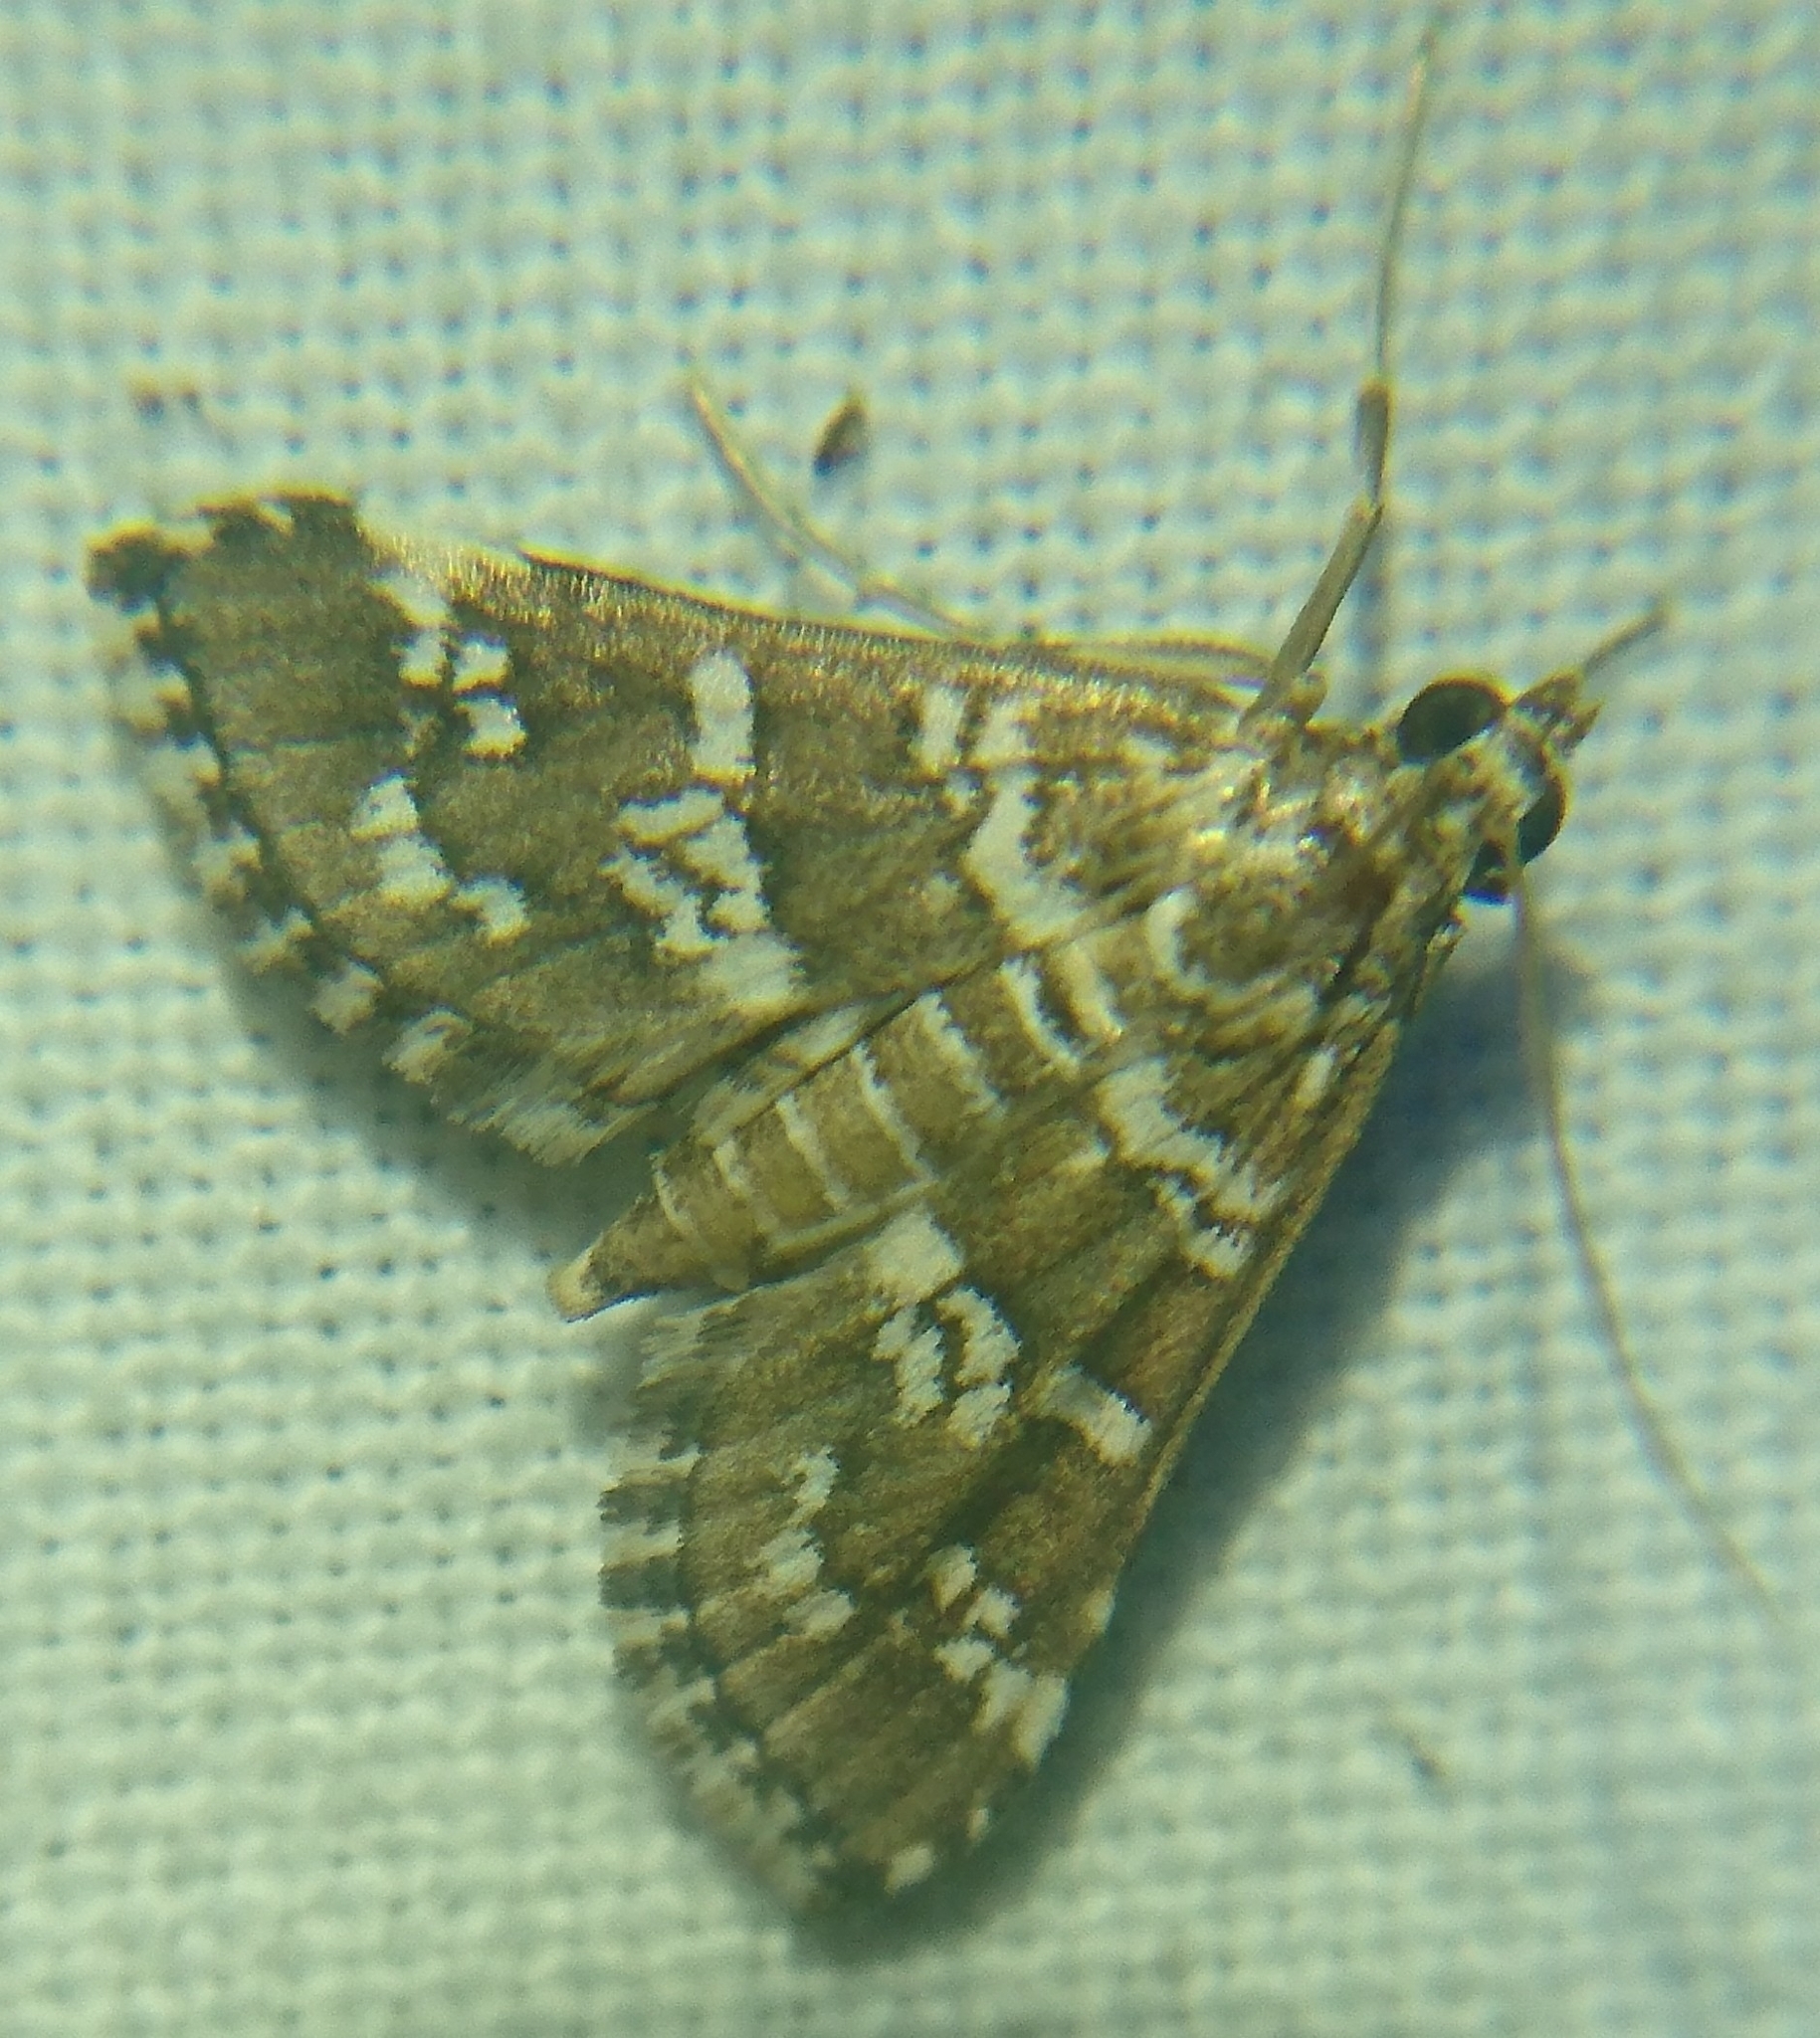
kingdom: Animalia
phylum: Arthropoda
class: Insecta
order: Lepidoptera
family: Crambidae
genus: Samea
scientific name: Samea druchachalis
